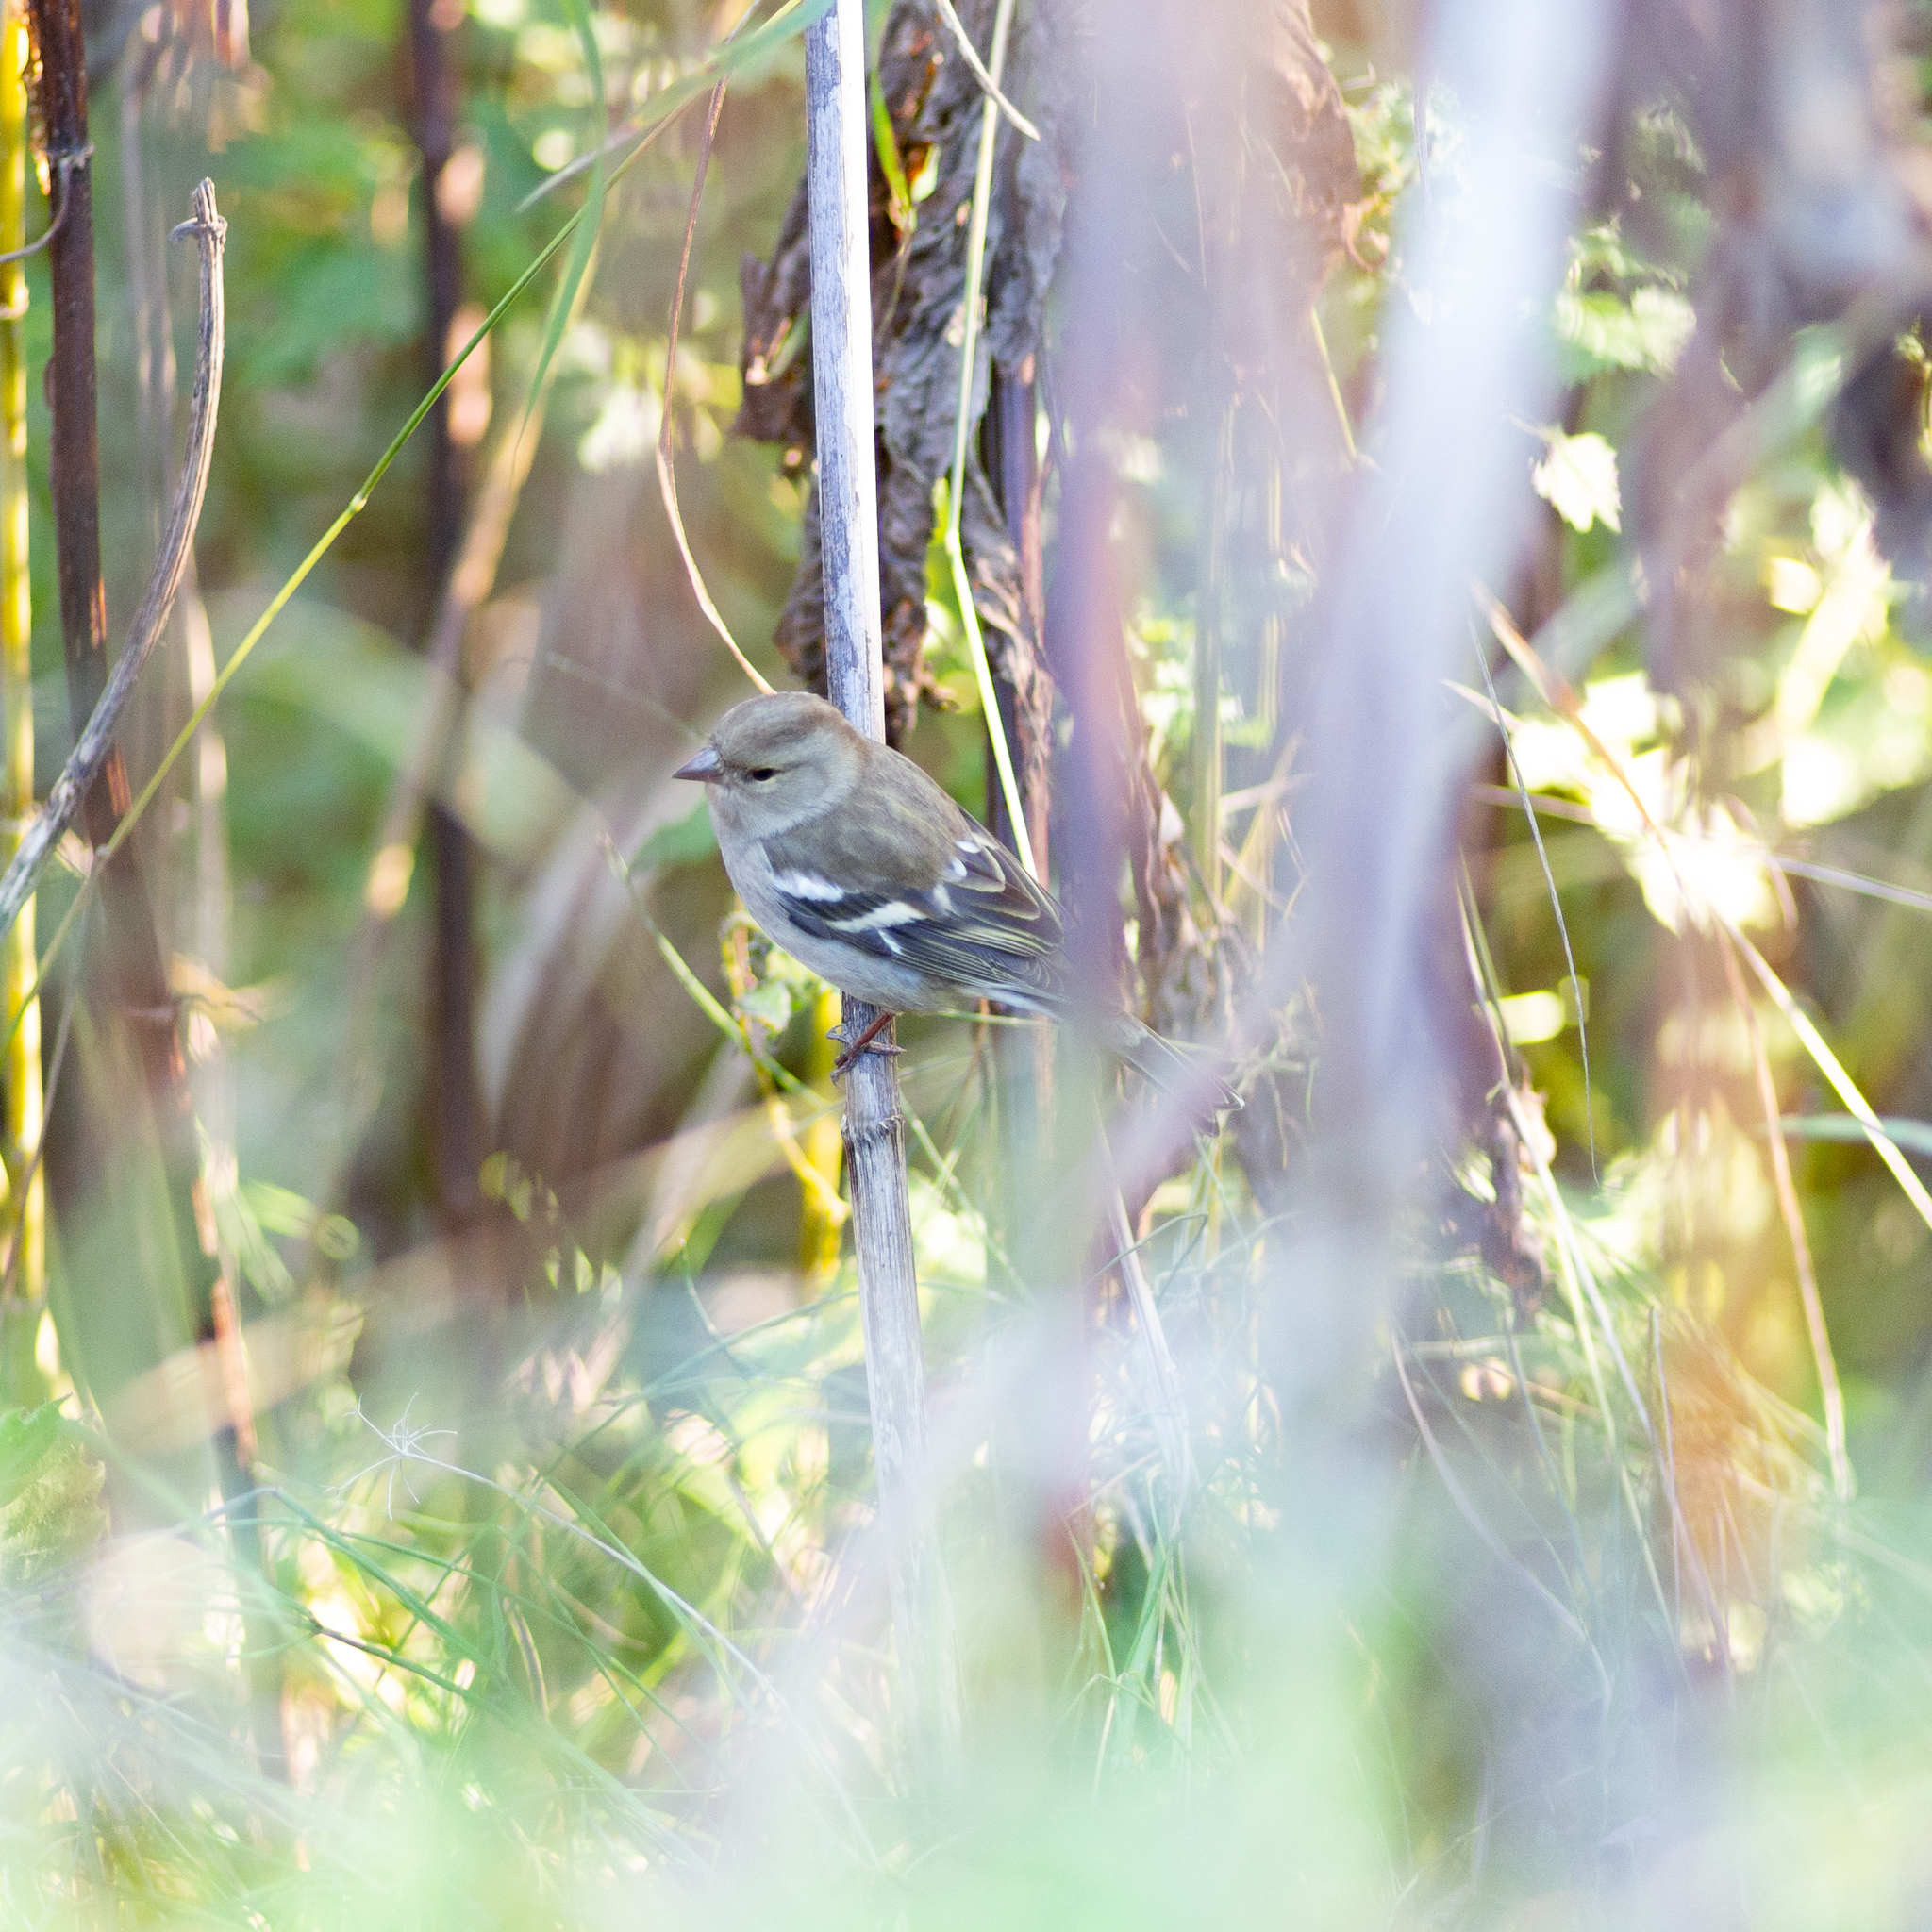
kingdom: Animalia
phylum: Chordata
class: Aves
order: Passeriformes
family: Fringillidae
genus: Fringilla
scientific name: Fringilla coelebs
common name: Common chaffinch
